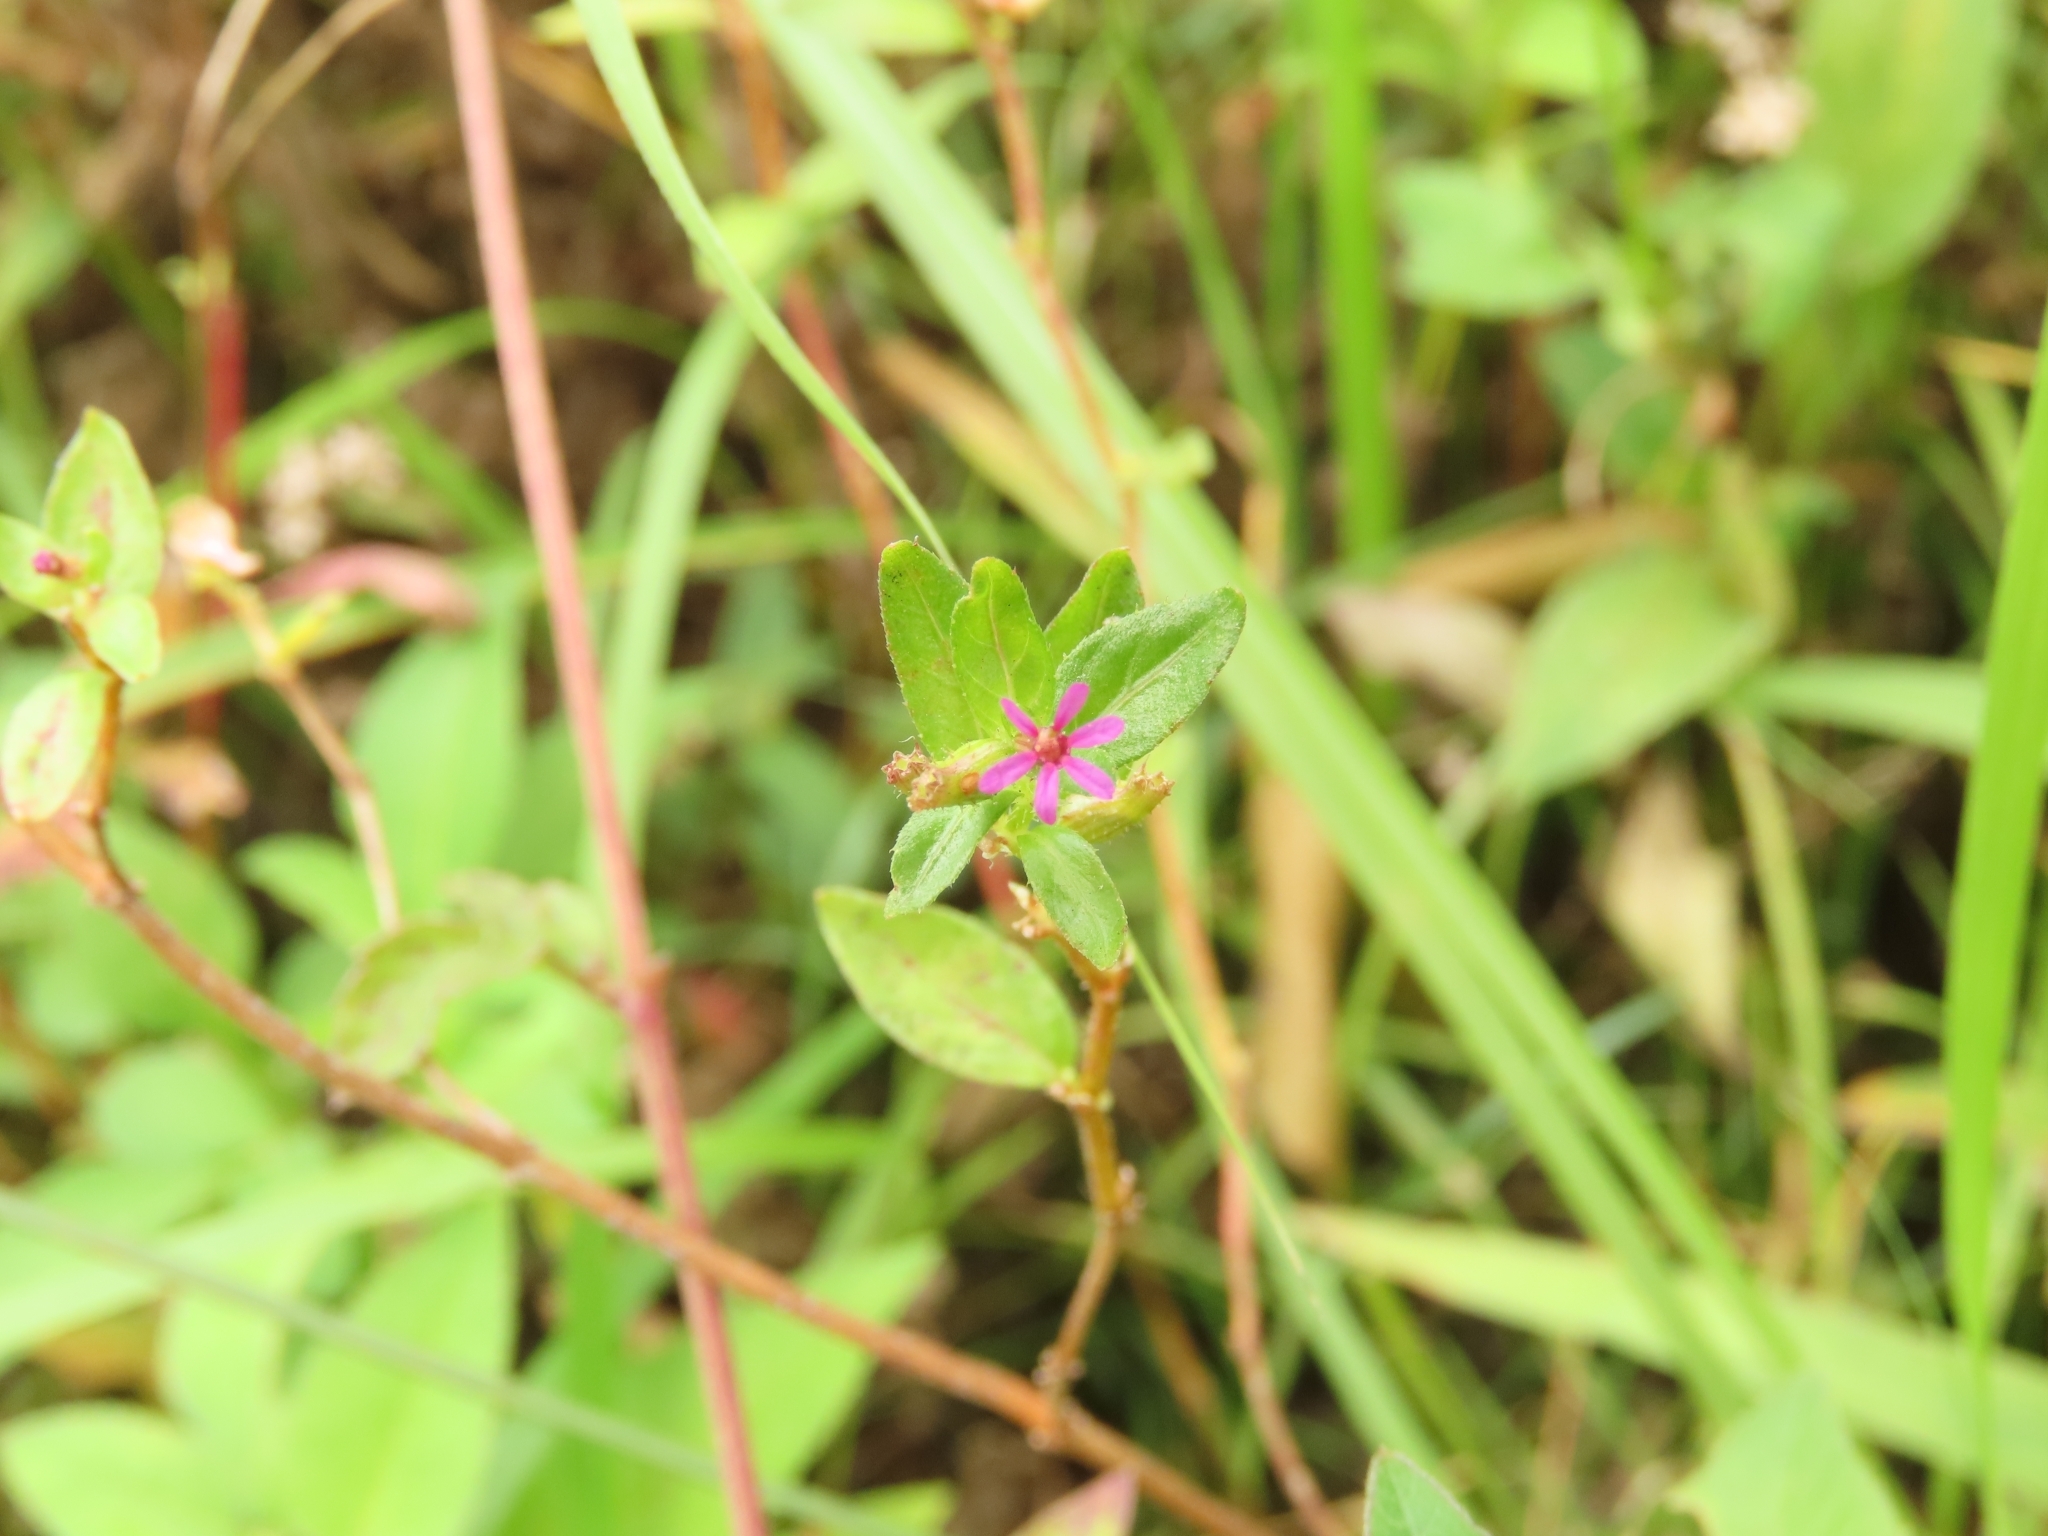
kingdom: Plantae
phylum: Tracheophyta
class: Magnoliopsida
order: Myrtales
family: Lythraceae
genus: Cuphea
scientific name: Cuphea carthagenensis
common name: Colombian waxweed
